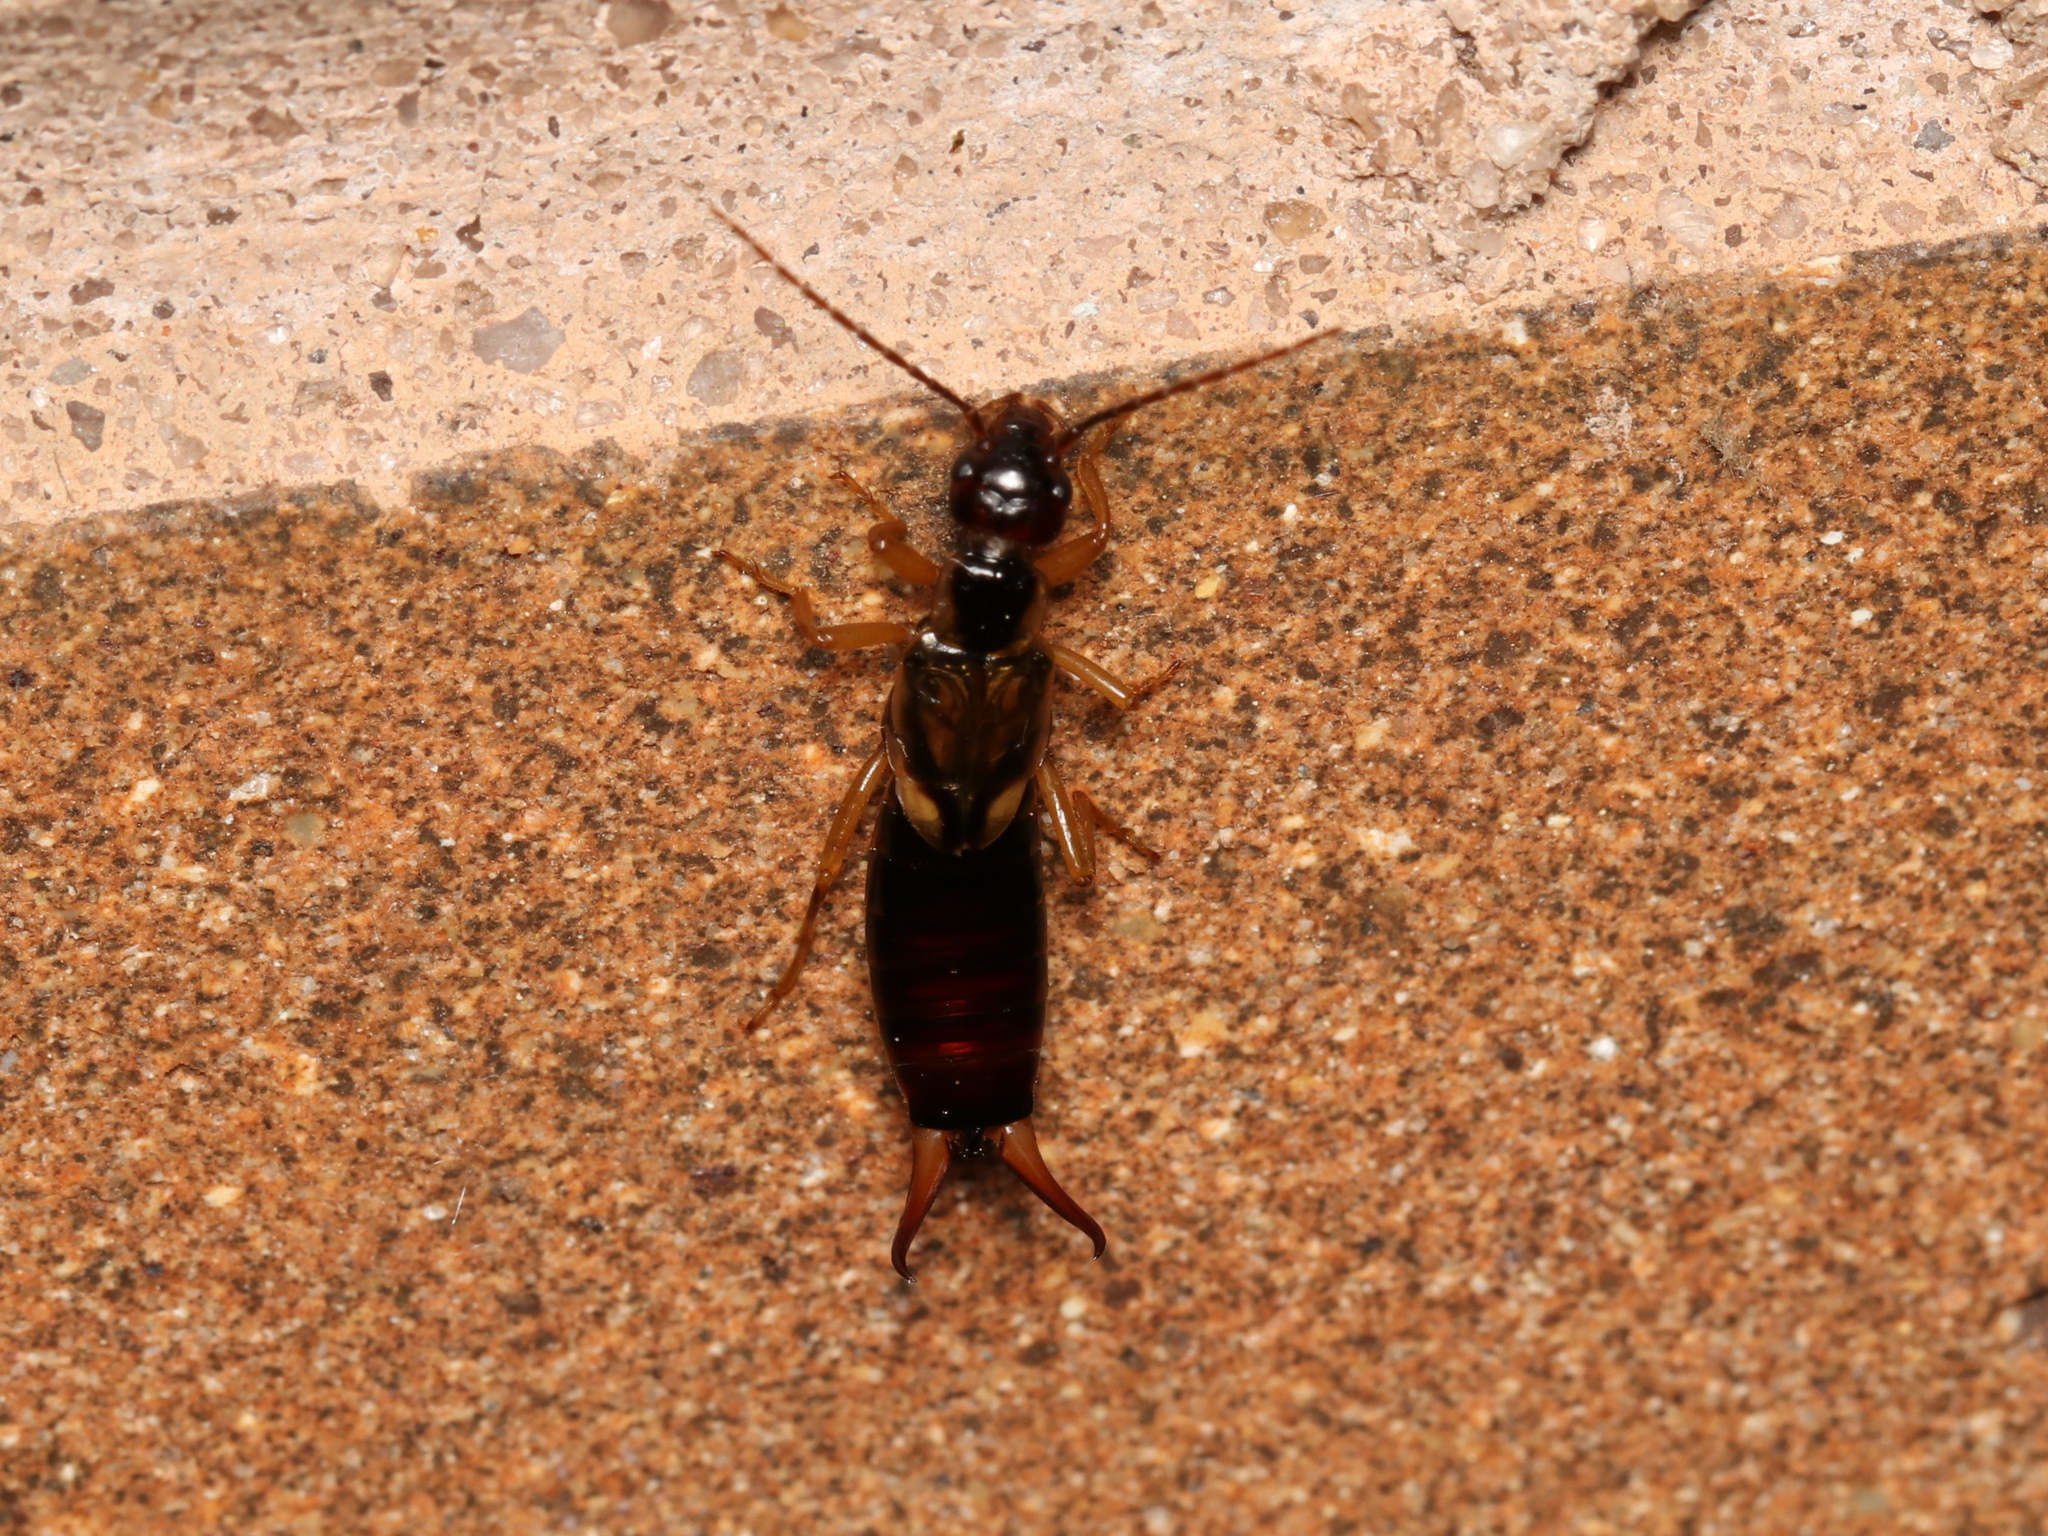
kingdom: Animalia
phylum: Arthropoda
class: Insecta
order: Dermaptera
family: Forficulidae
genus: Forficula
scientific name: Forficula
